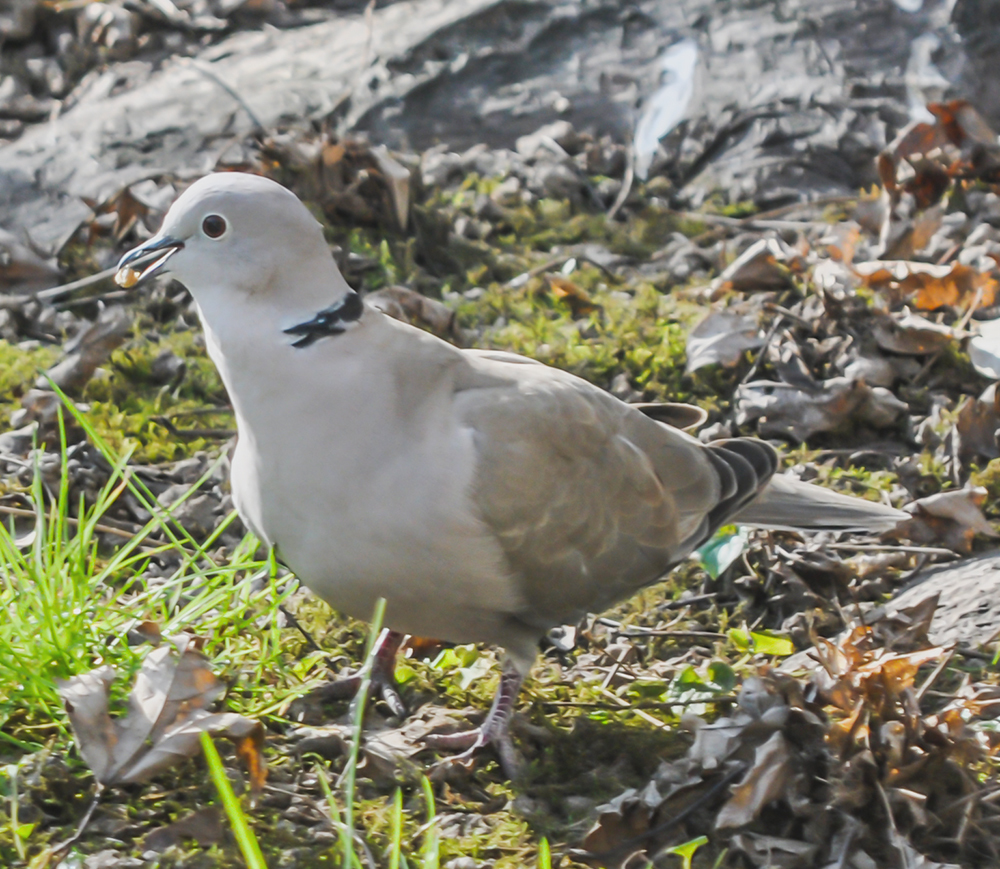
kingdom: Animalia
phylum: Chordata
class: Aves
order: Columbiformes
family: Columbidae
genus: Streptopelia
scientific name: Streptopelia decaocto
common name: Eurasian collared dove
